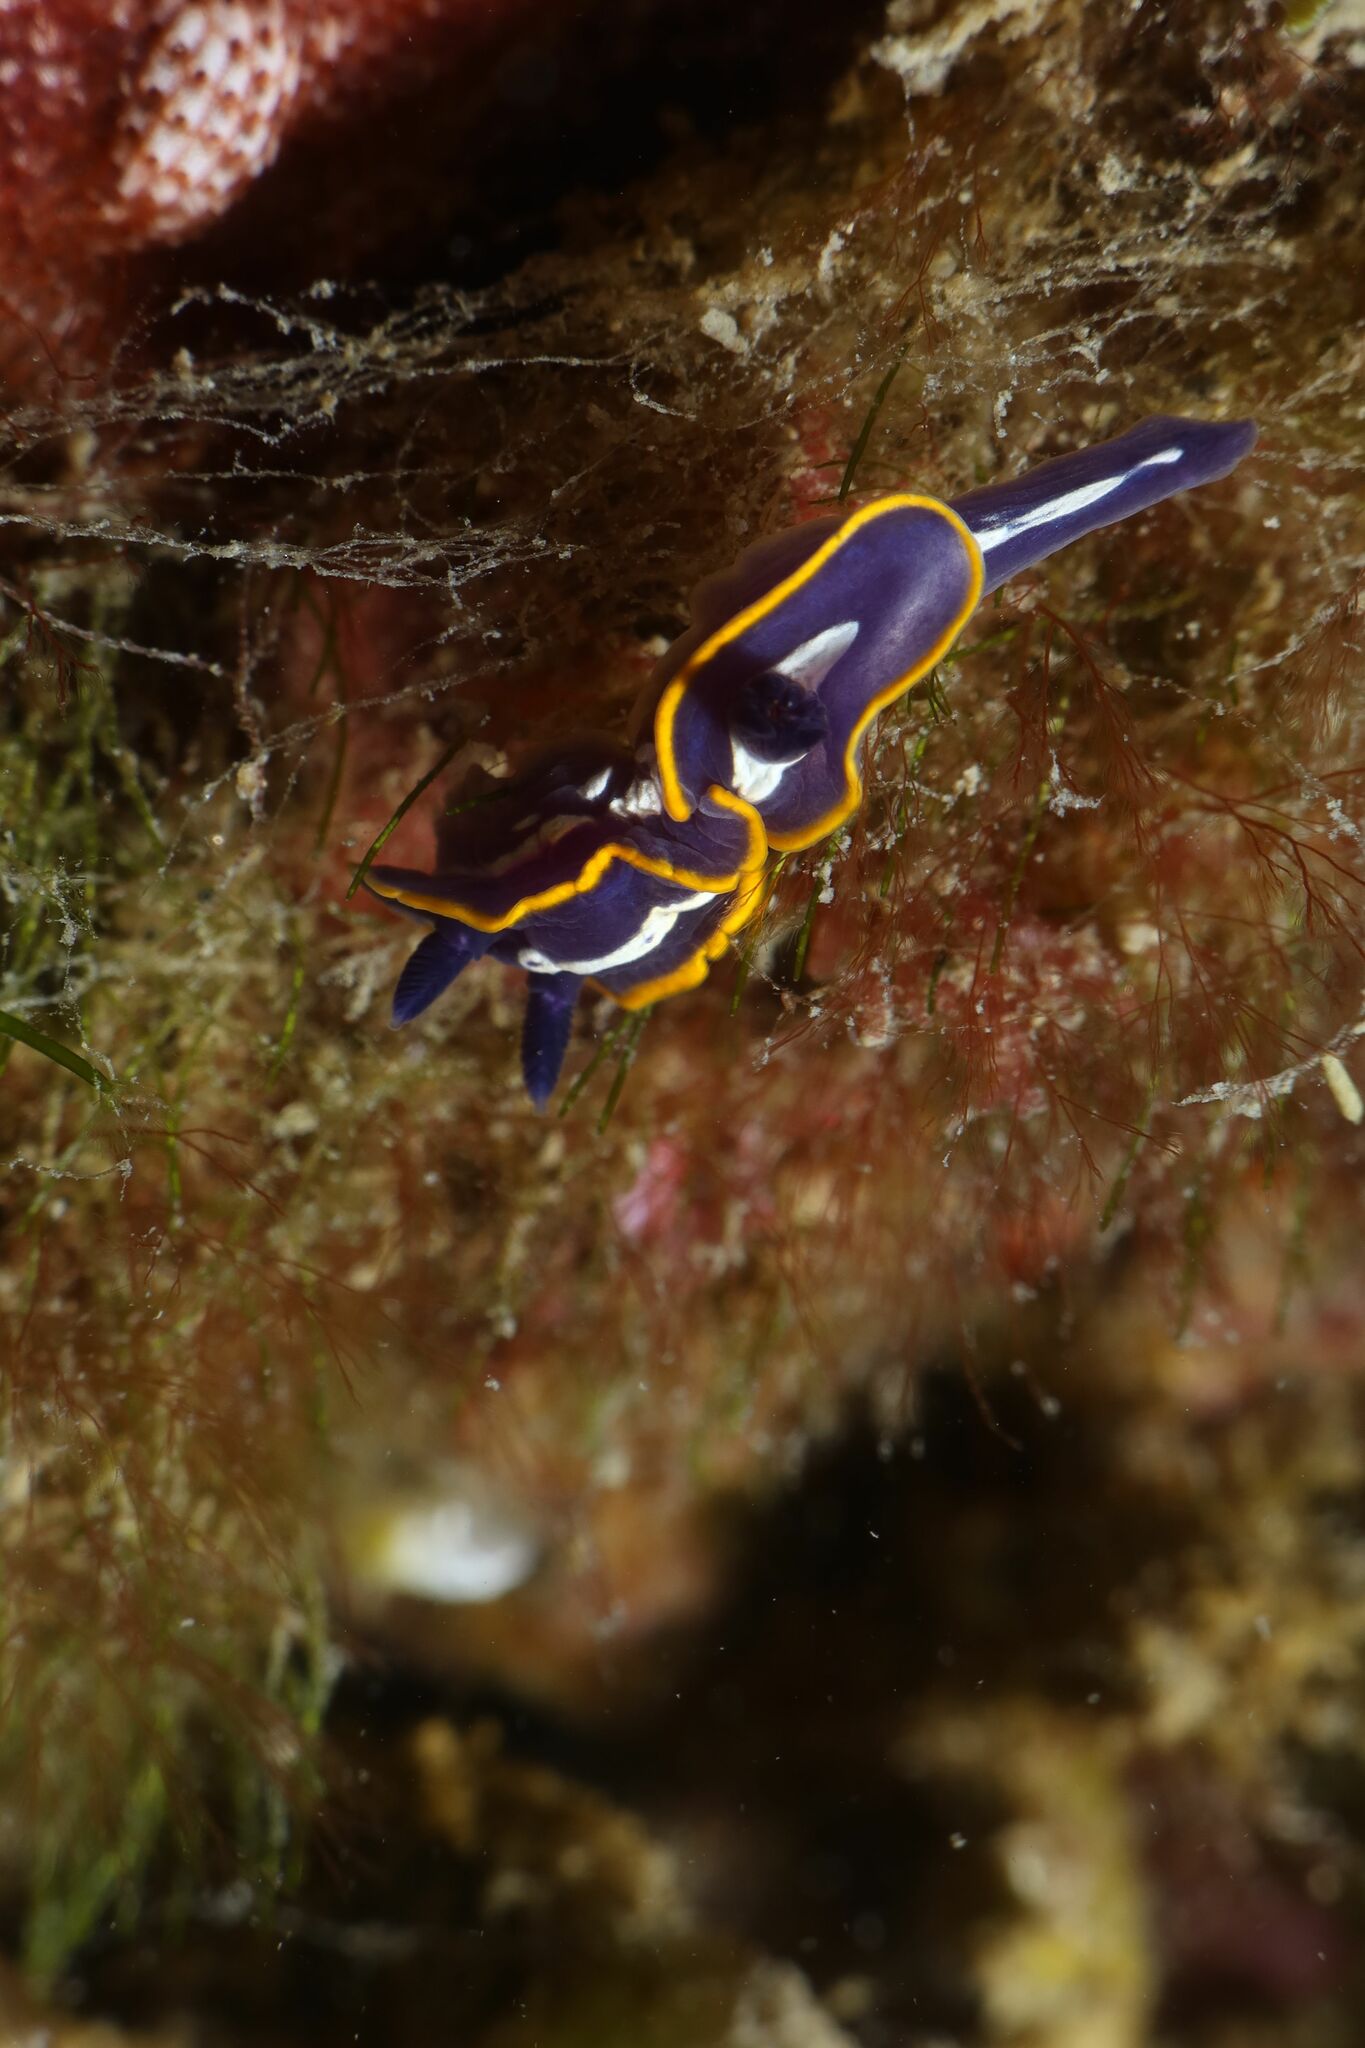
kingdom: Animalia
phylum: Mollusca
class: Gastropoda
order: Nudibranchia
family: Chromodorididae
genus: Felimare
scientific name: Felimare fontandraui
